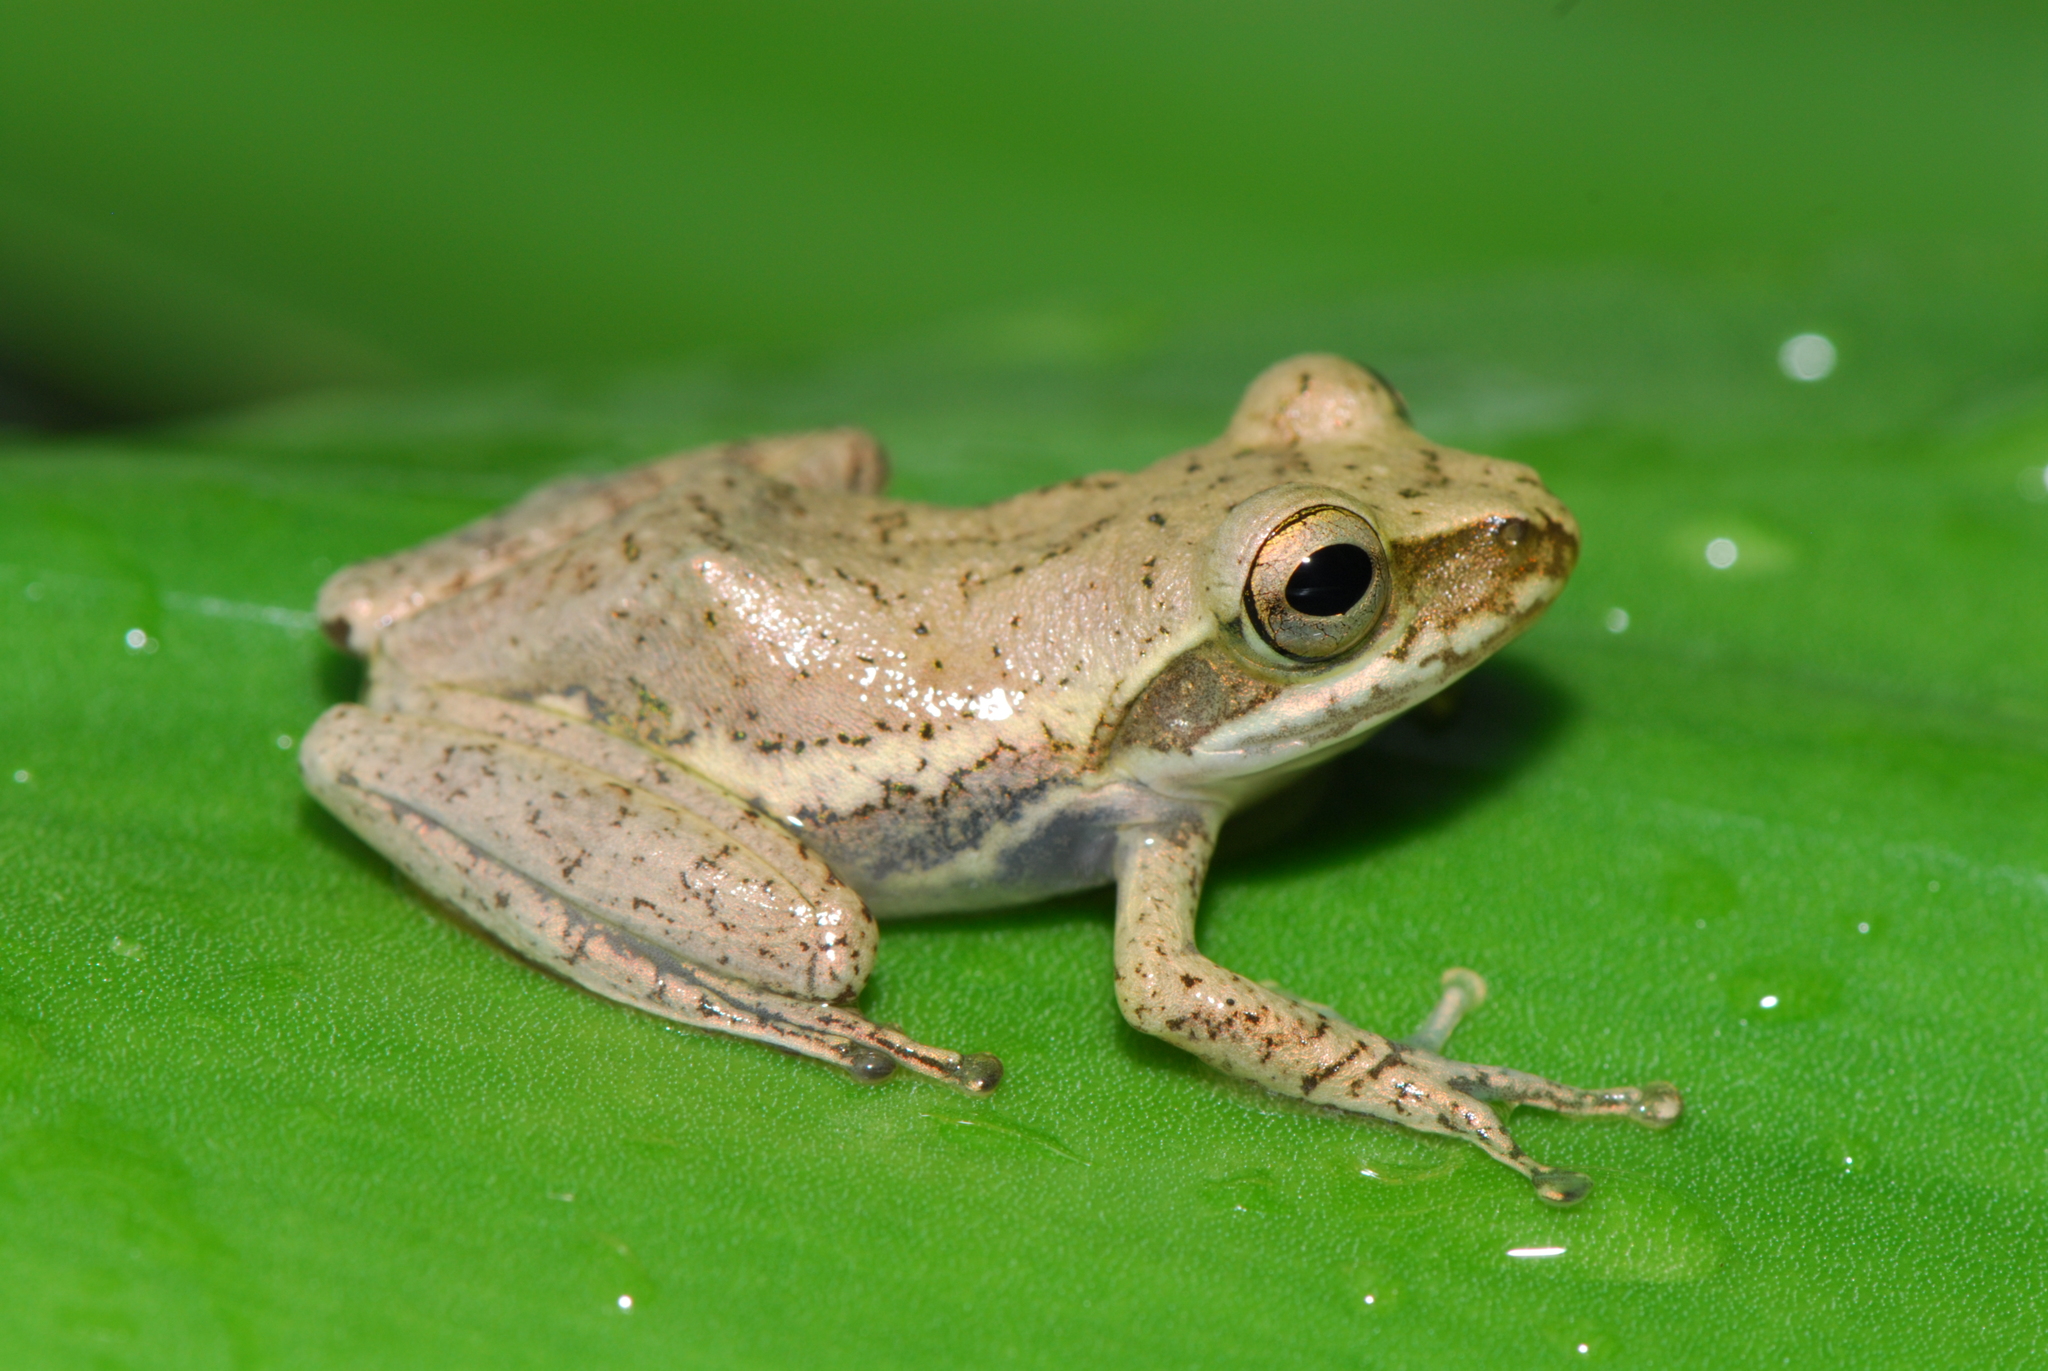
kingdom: Animalia
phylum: Chordata
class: Amphibia
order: Anura
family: Mantellidae
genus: Boophis
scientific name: Boophis tephraeomystax
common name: Dumeril's bright-eyed frog
